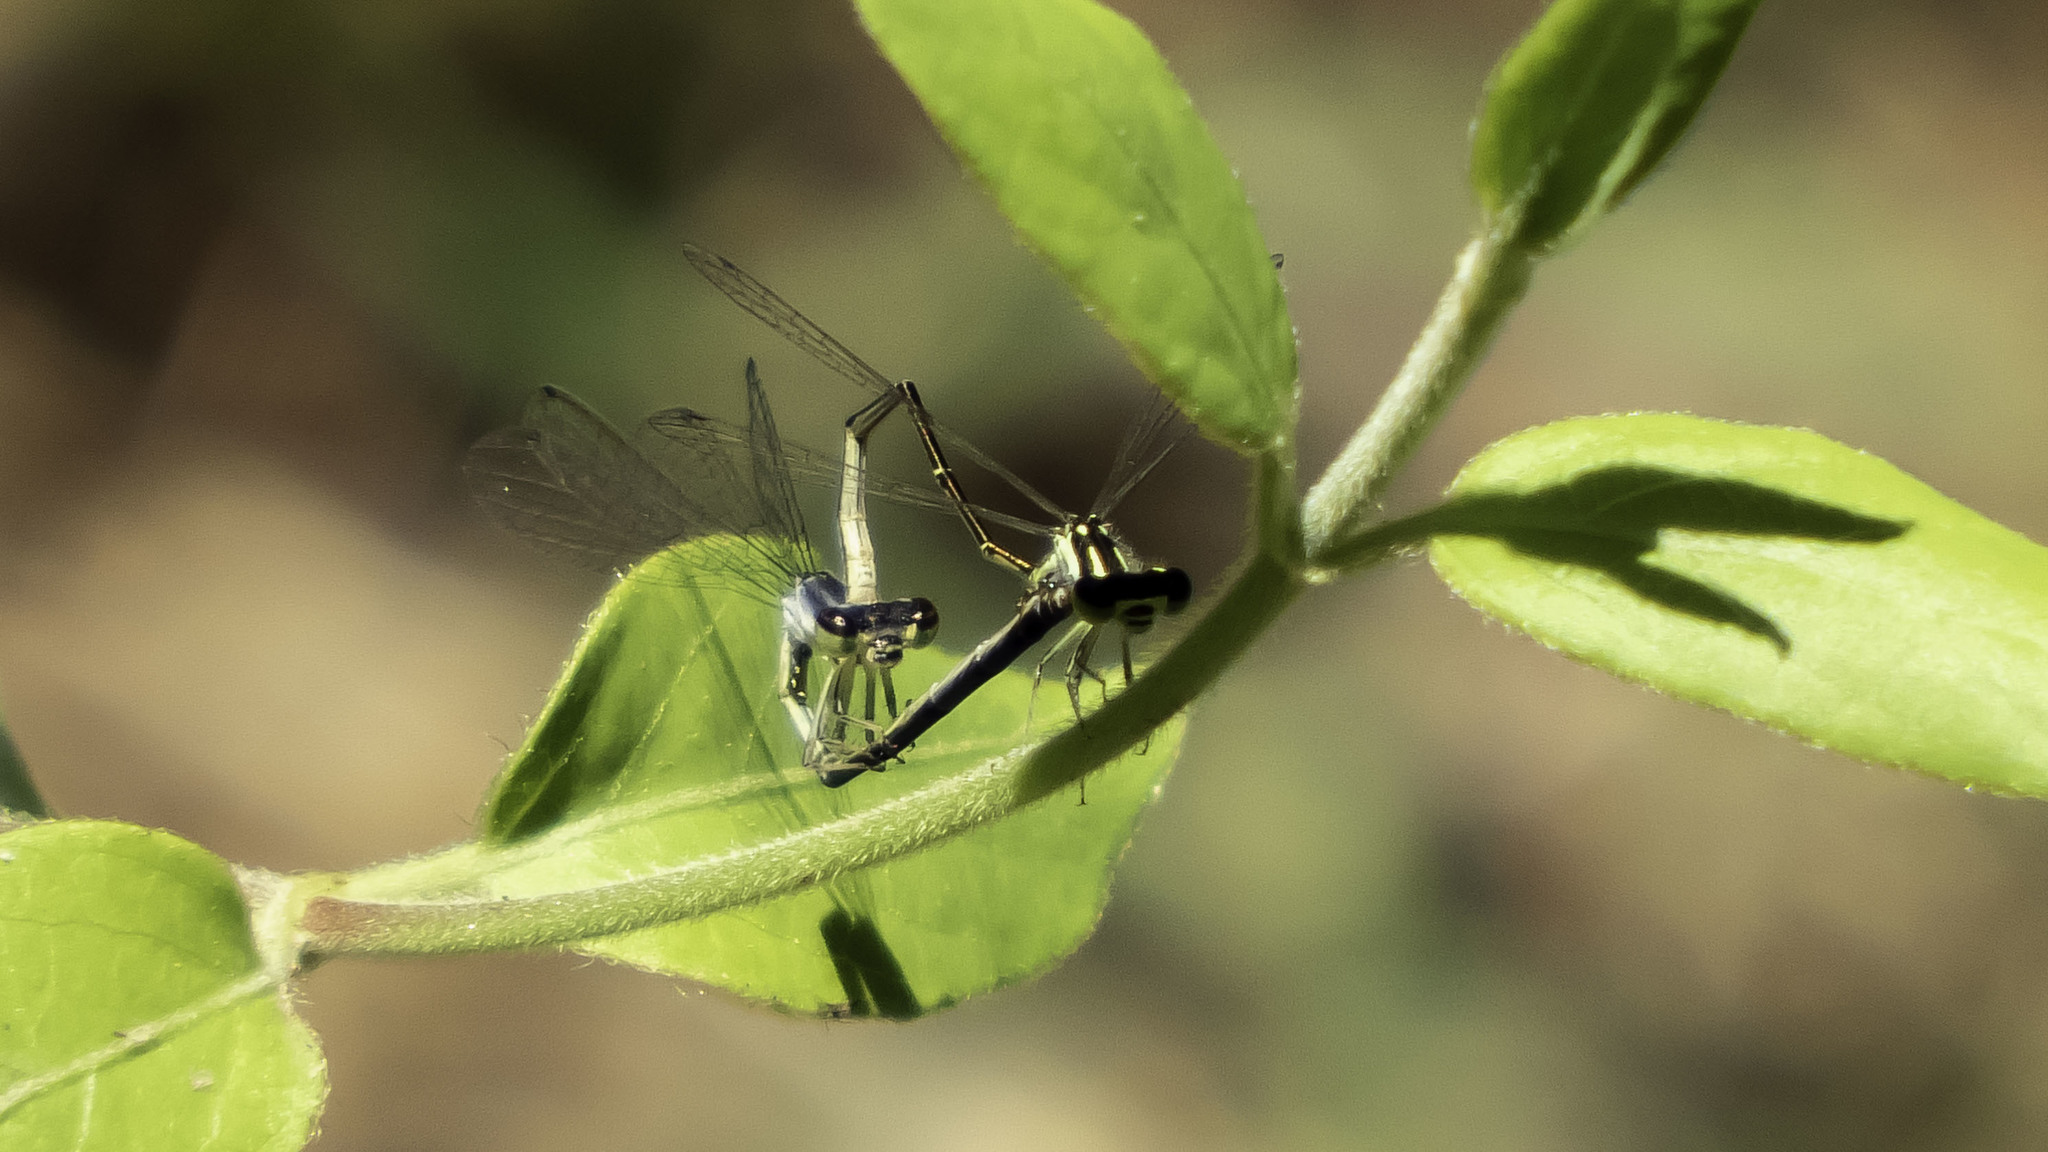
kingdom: Animalia
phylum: Arthropoda
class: Insecta
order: Odonata
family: Coenagrionidae
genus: Ischnura
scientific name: Ischnura posita
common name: Fragile forktail
